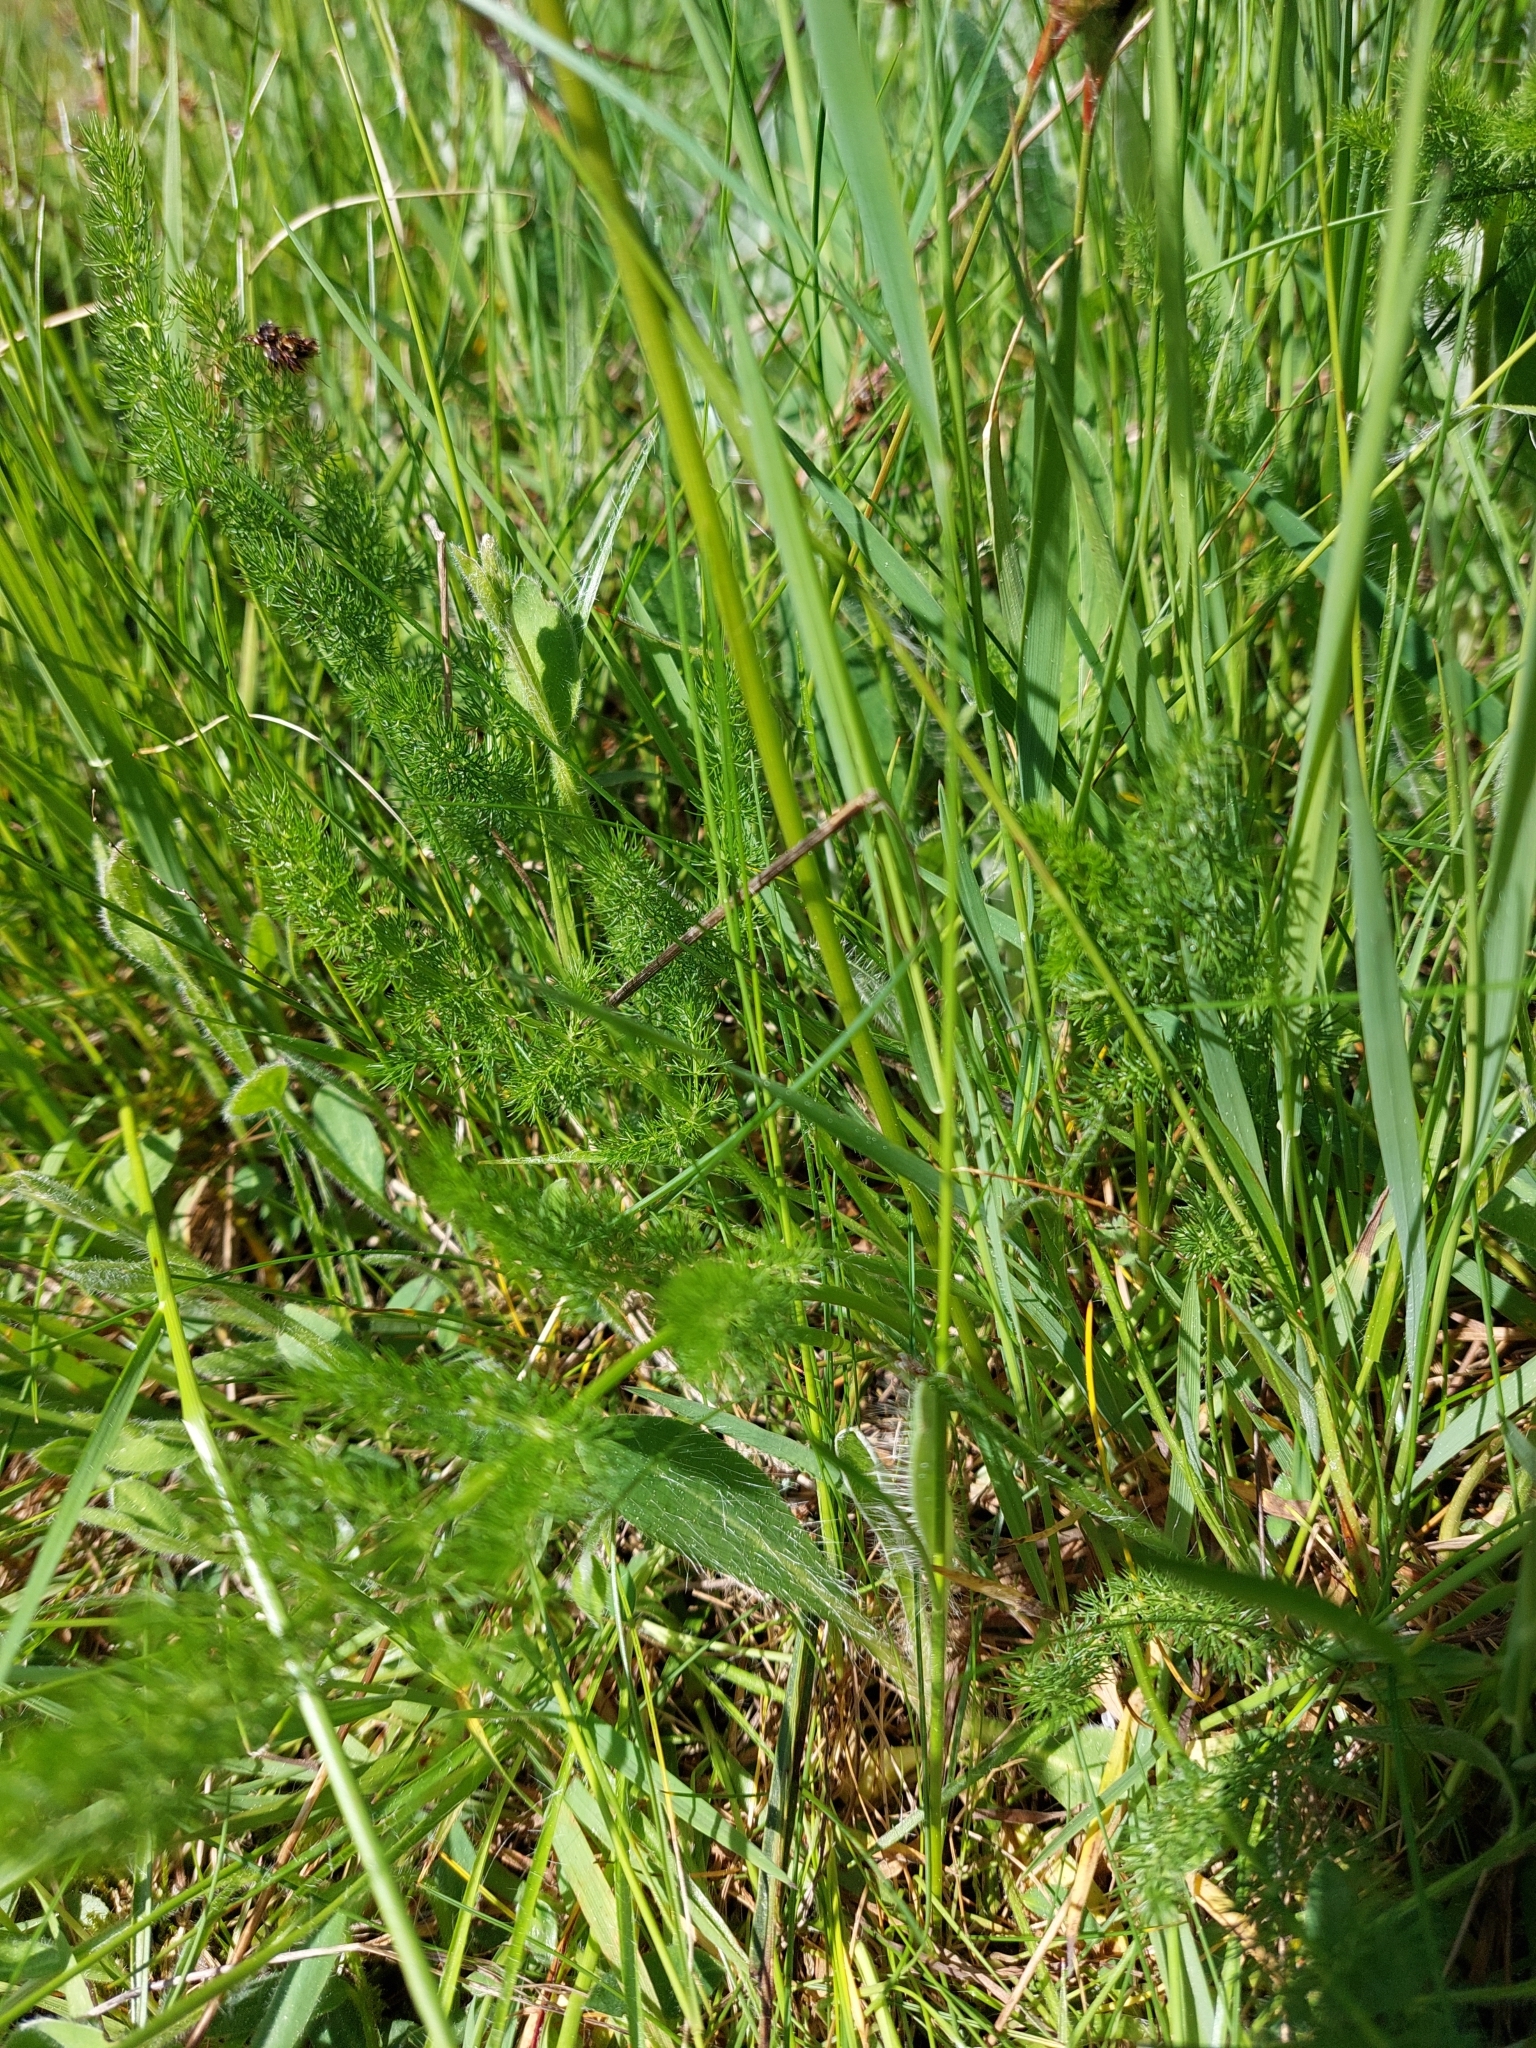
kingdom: Plantae
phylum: Tracheophyta
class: Magnoliopsida
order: Apiales
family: Apiaceae
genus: Meum
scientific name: Meum athamanticum
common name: Spignel
